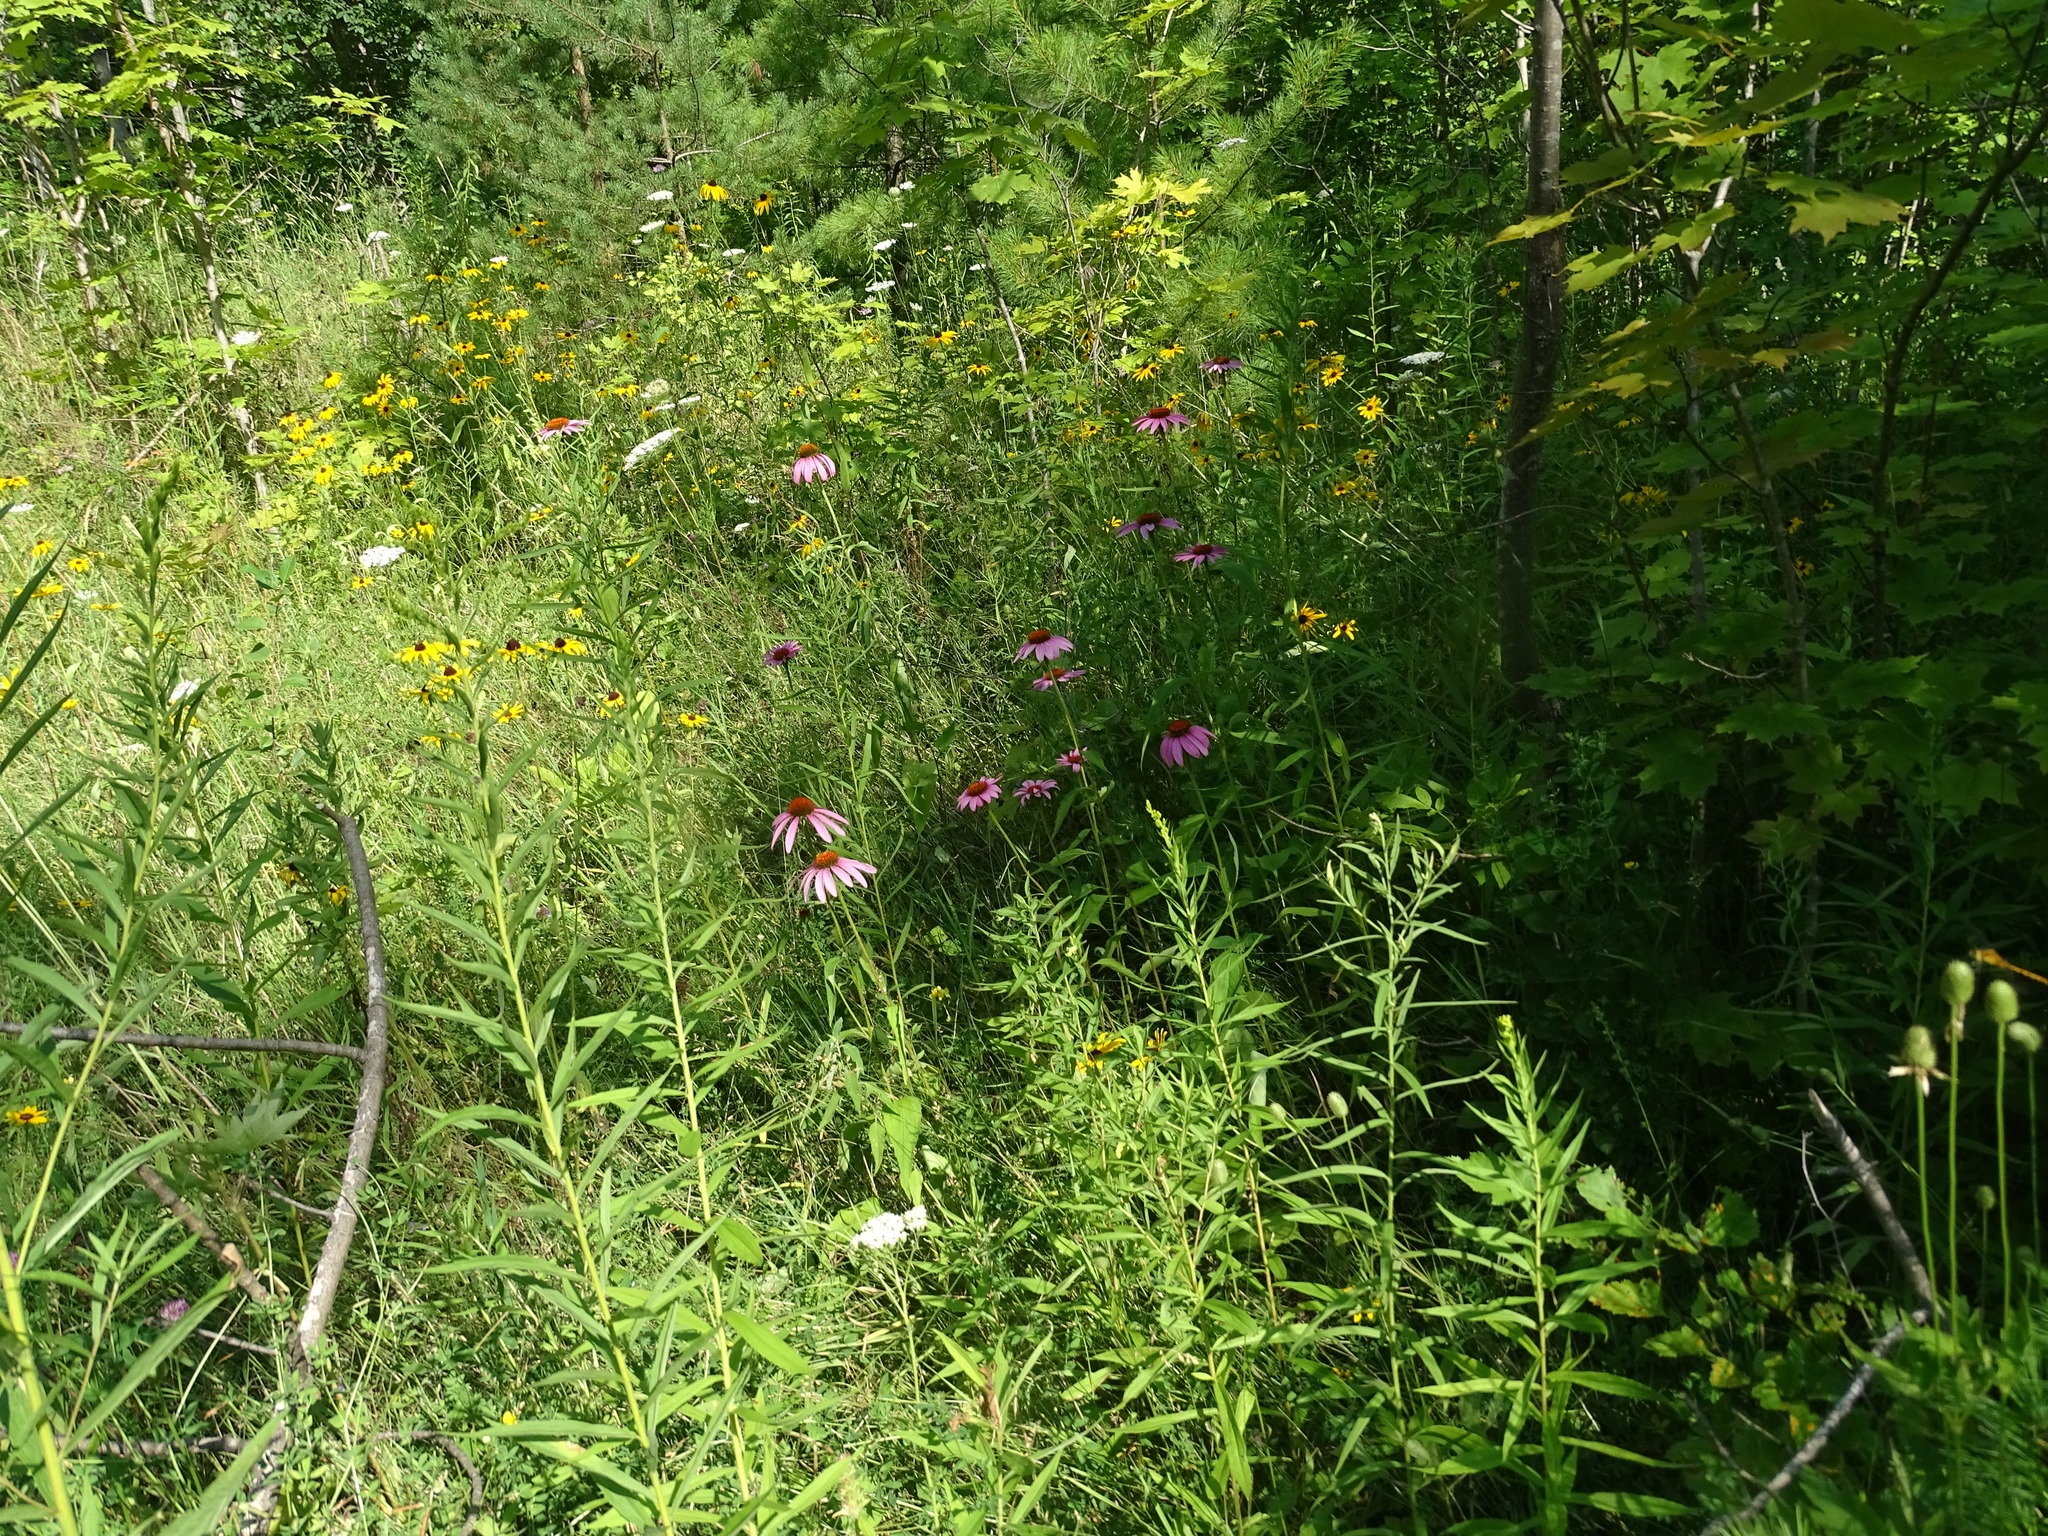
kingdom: Plantae
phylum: Tracheophyta
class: Magnoliopsida
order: Asterales
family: Asteraceae
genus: Echinacea
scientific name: Echinacea purpurea
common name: Broad-leaved purple coneflower
